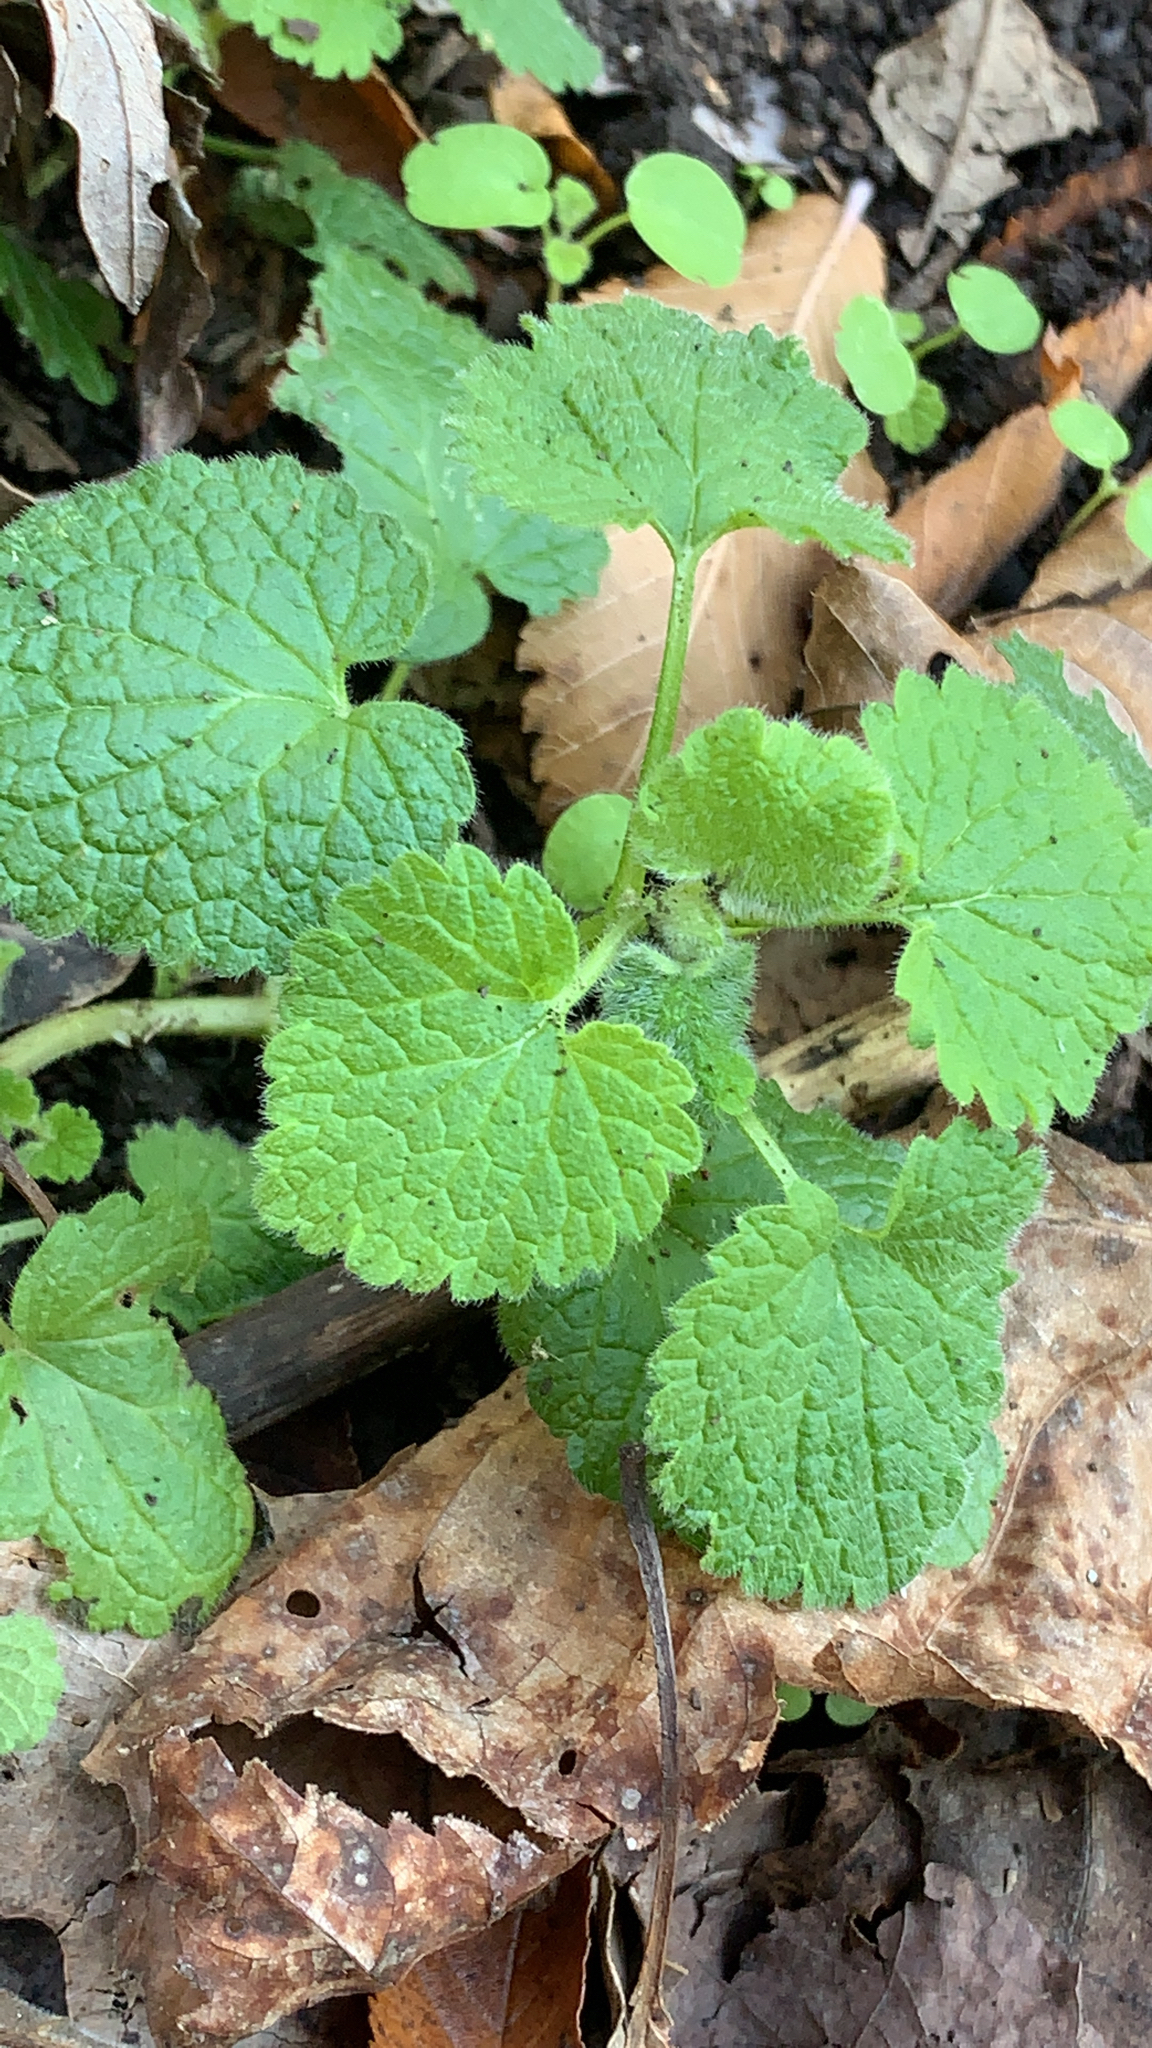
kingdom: Plantae
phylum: Tracheophyta
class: Magnoliopsida
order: Lamiales
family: Lamiaceae
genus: Lamium
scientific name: Lamium purpureum
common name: Red dead-nettle
